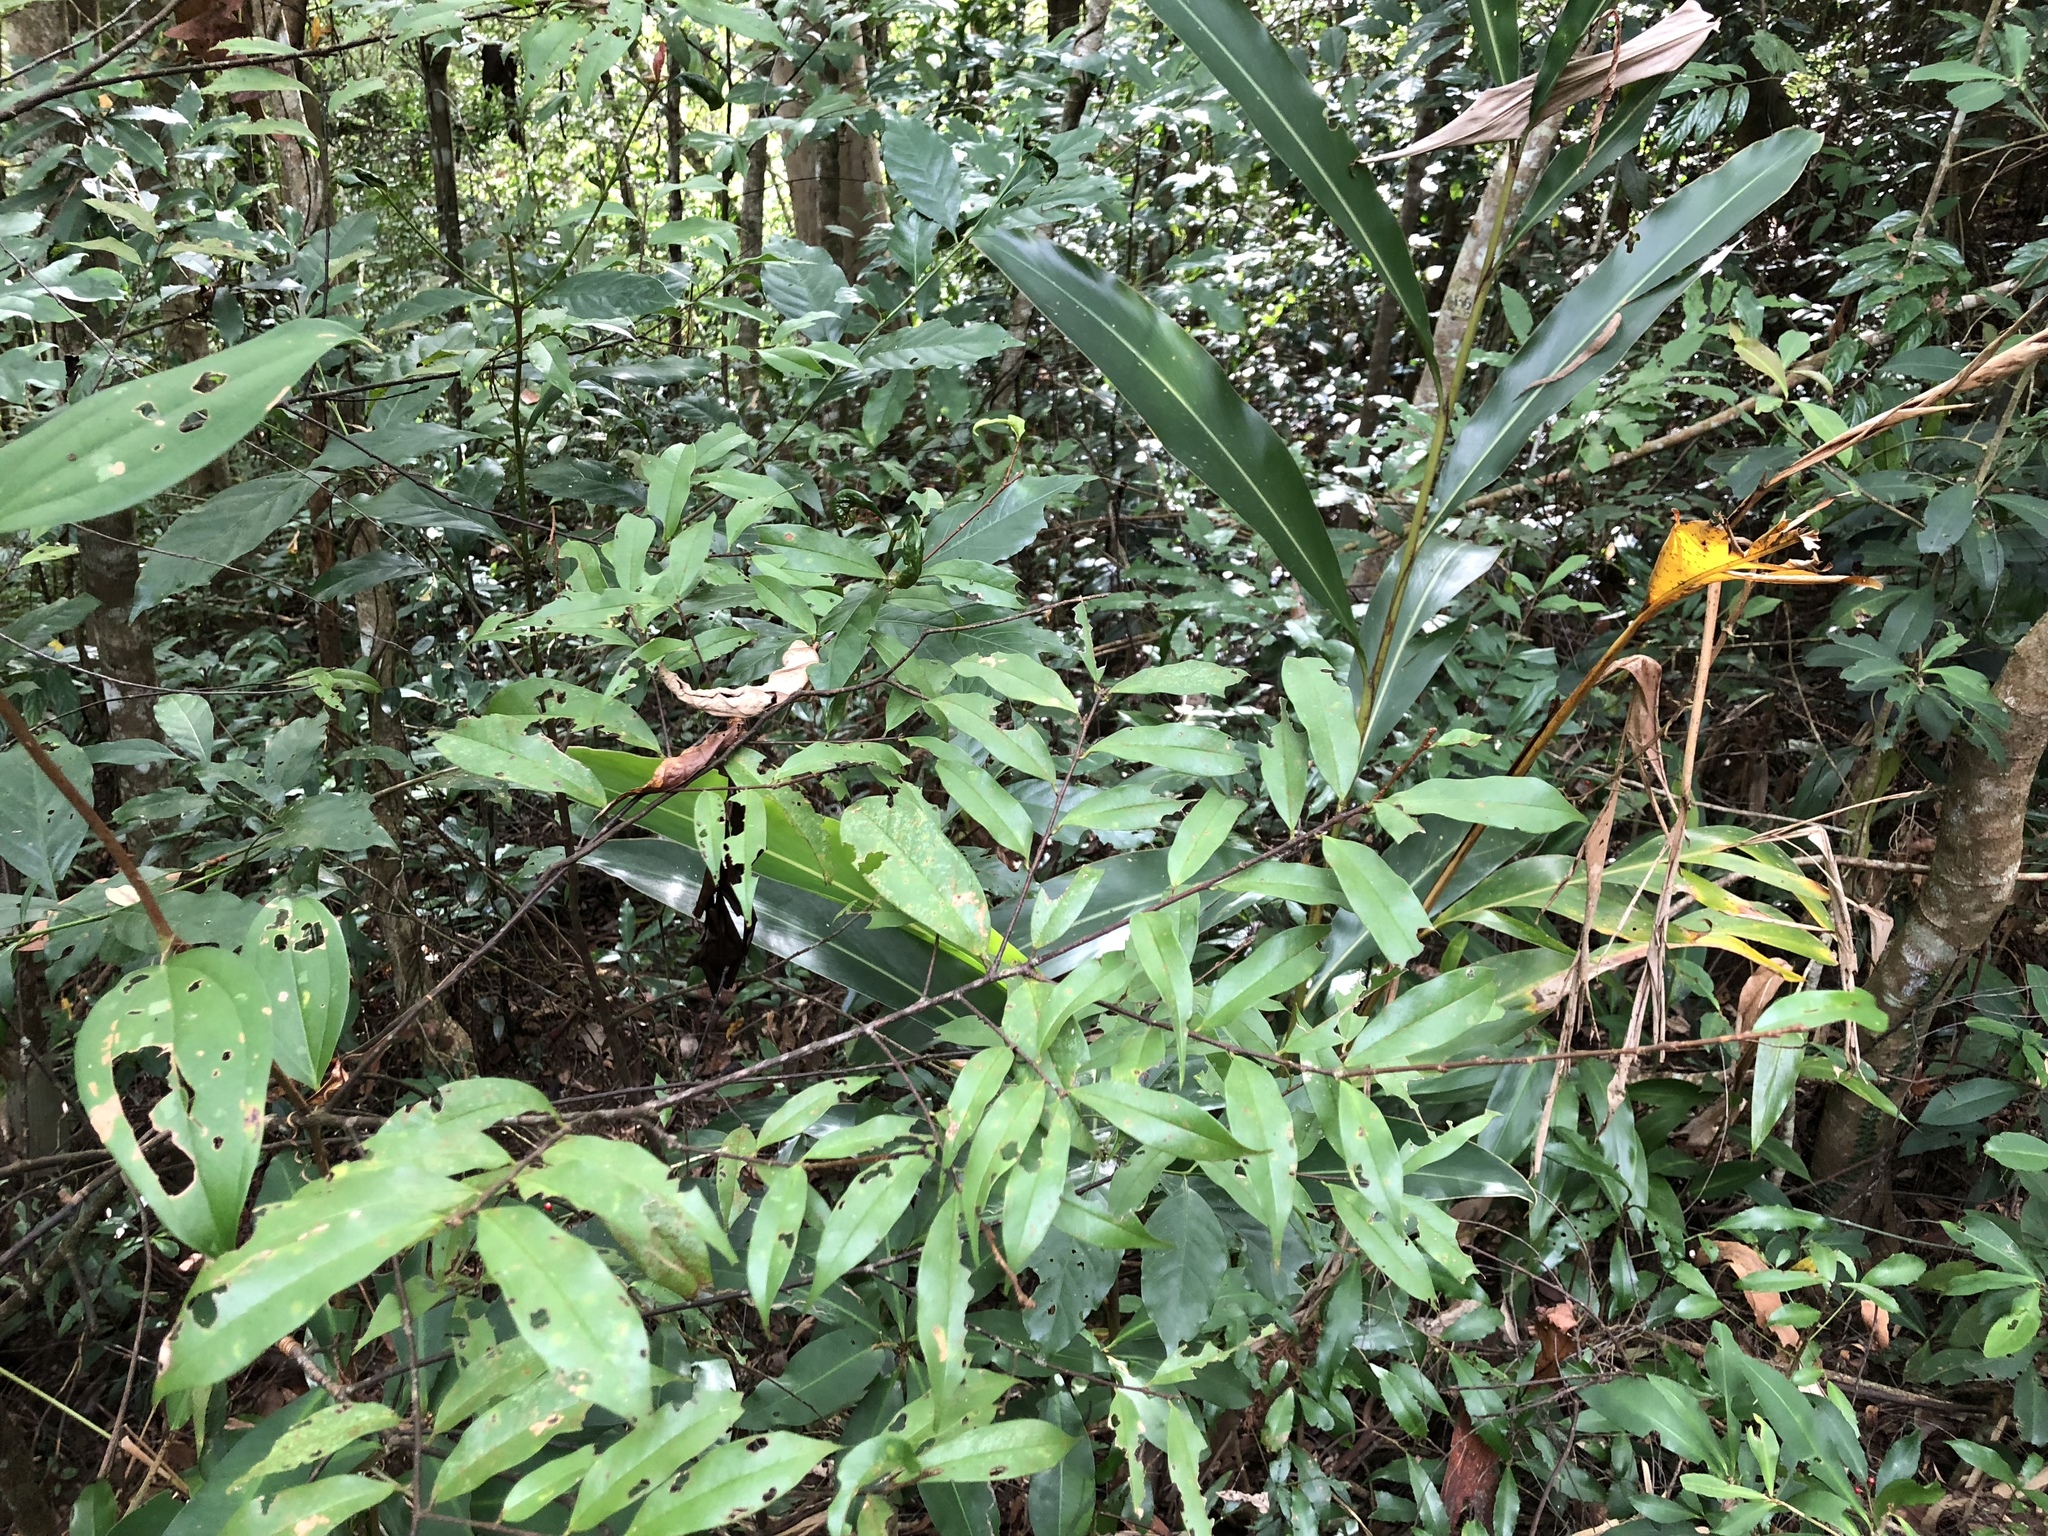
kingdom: Plantae
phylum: Tracheophyta
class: Magnoliopsida
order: Rosales
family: Rosaceae
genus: Prunus
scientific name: Prunus phaeosticta
